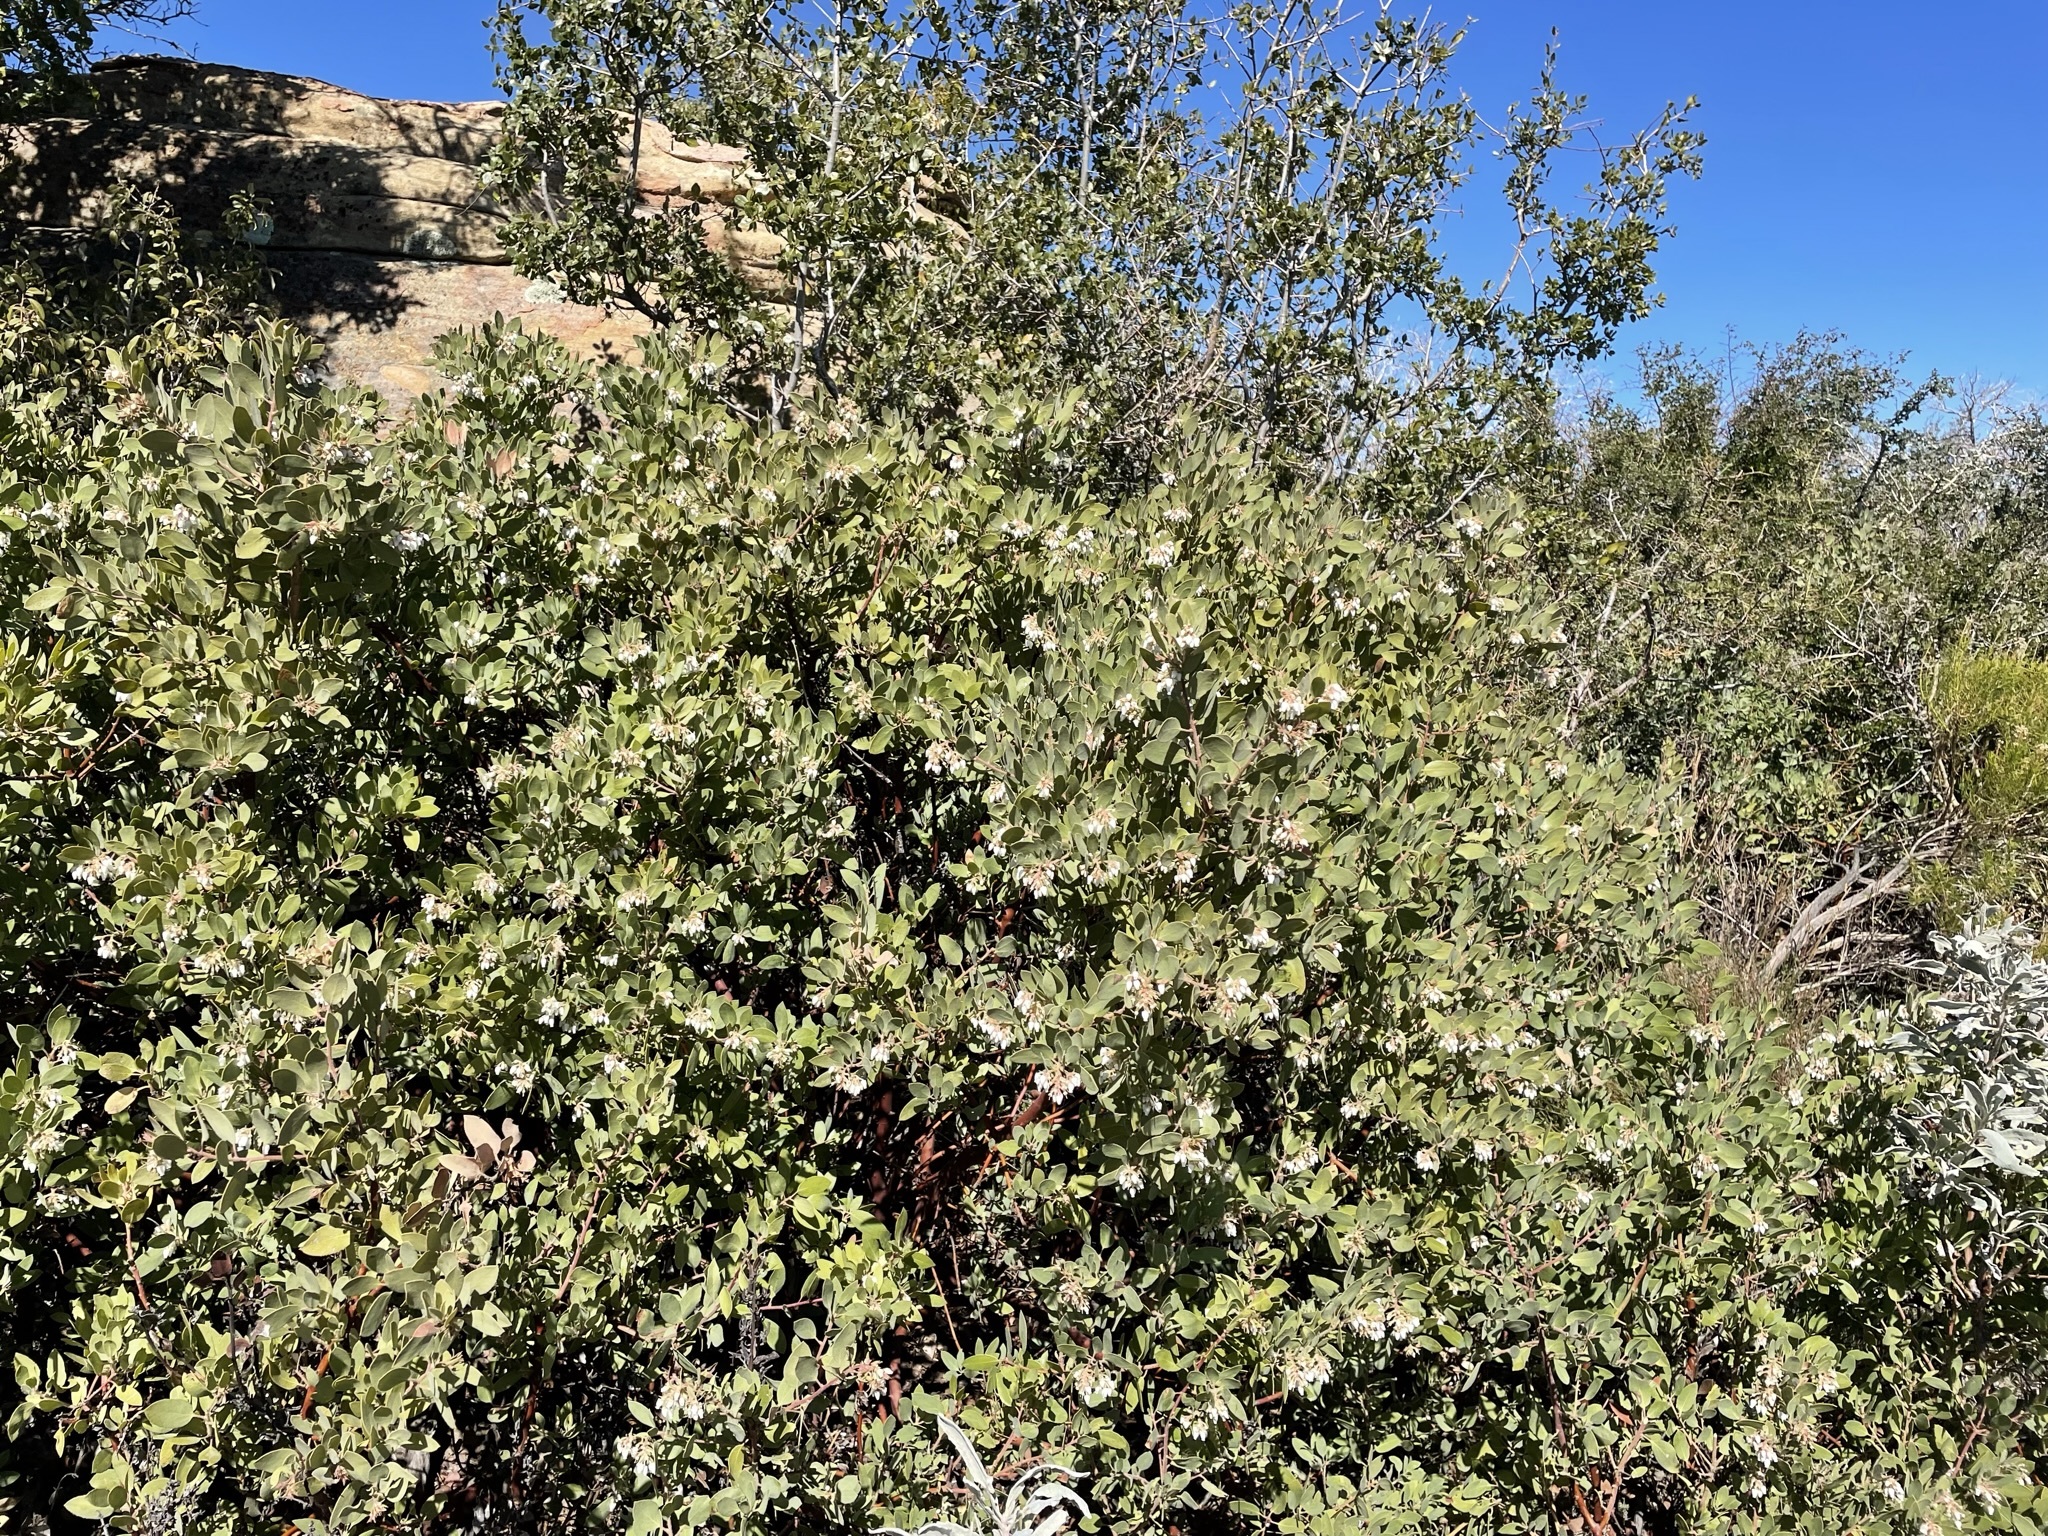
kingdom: Plantae
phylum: Tracheophyta
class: Magnoliopsida
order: Ericales
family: Ericaceae
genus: Arctostaphylos
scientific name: Arctostaphylos glandulosa
